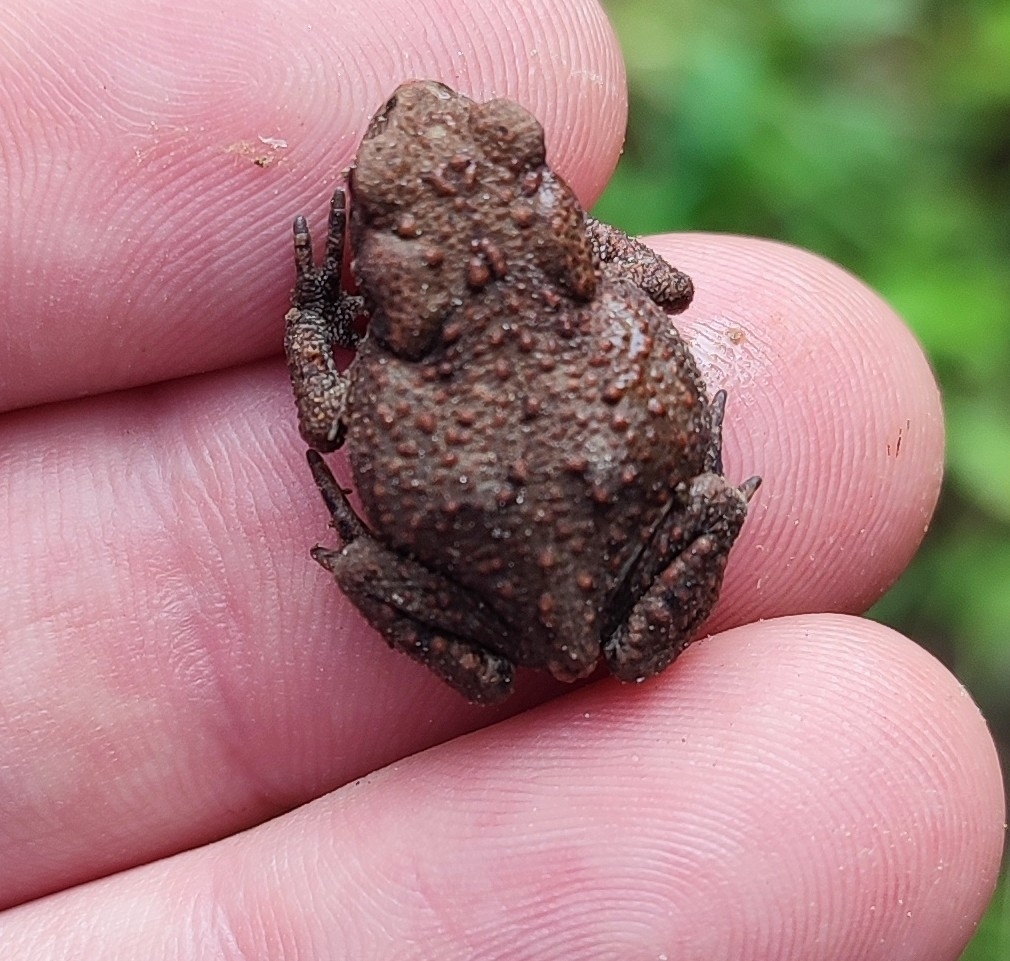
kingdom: Animalia
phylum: Chordata
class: Amphibia
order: Anura
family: Bufonidae
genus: Bufo
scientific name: Bufo bufo
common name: Common toad
